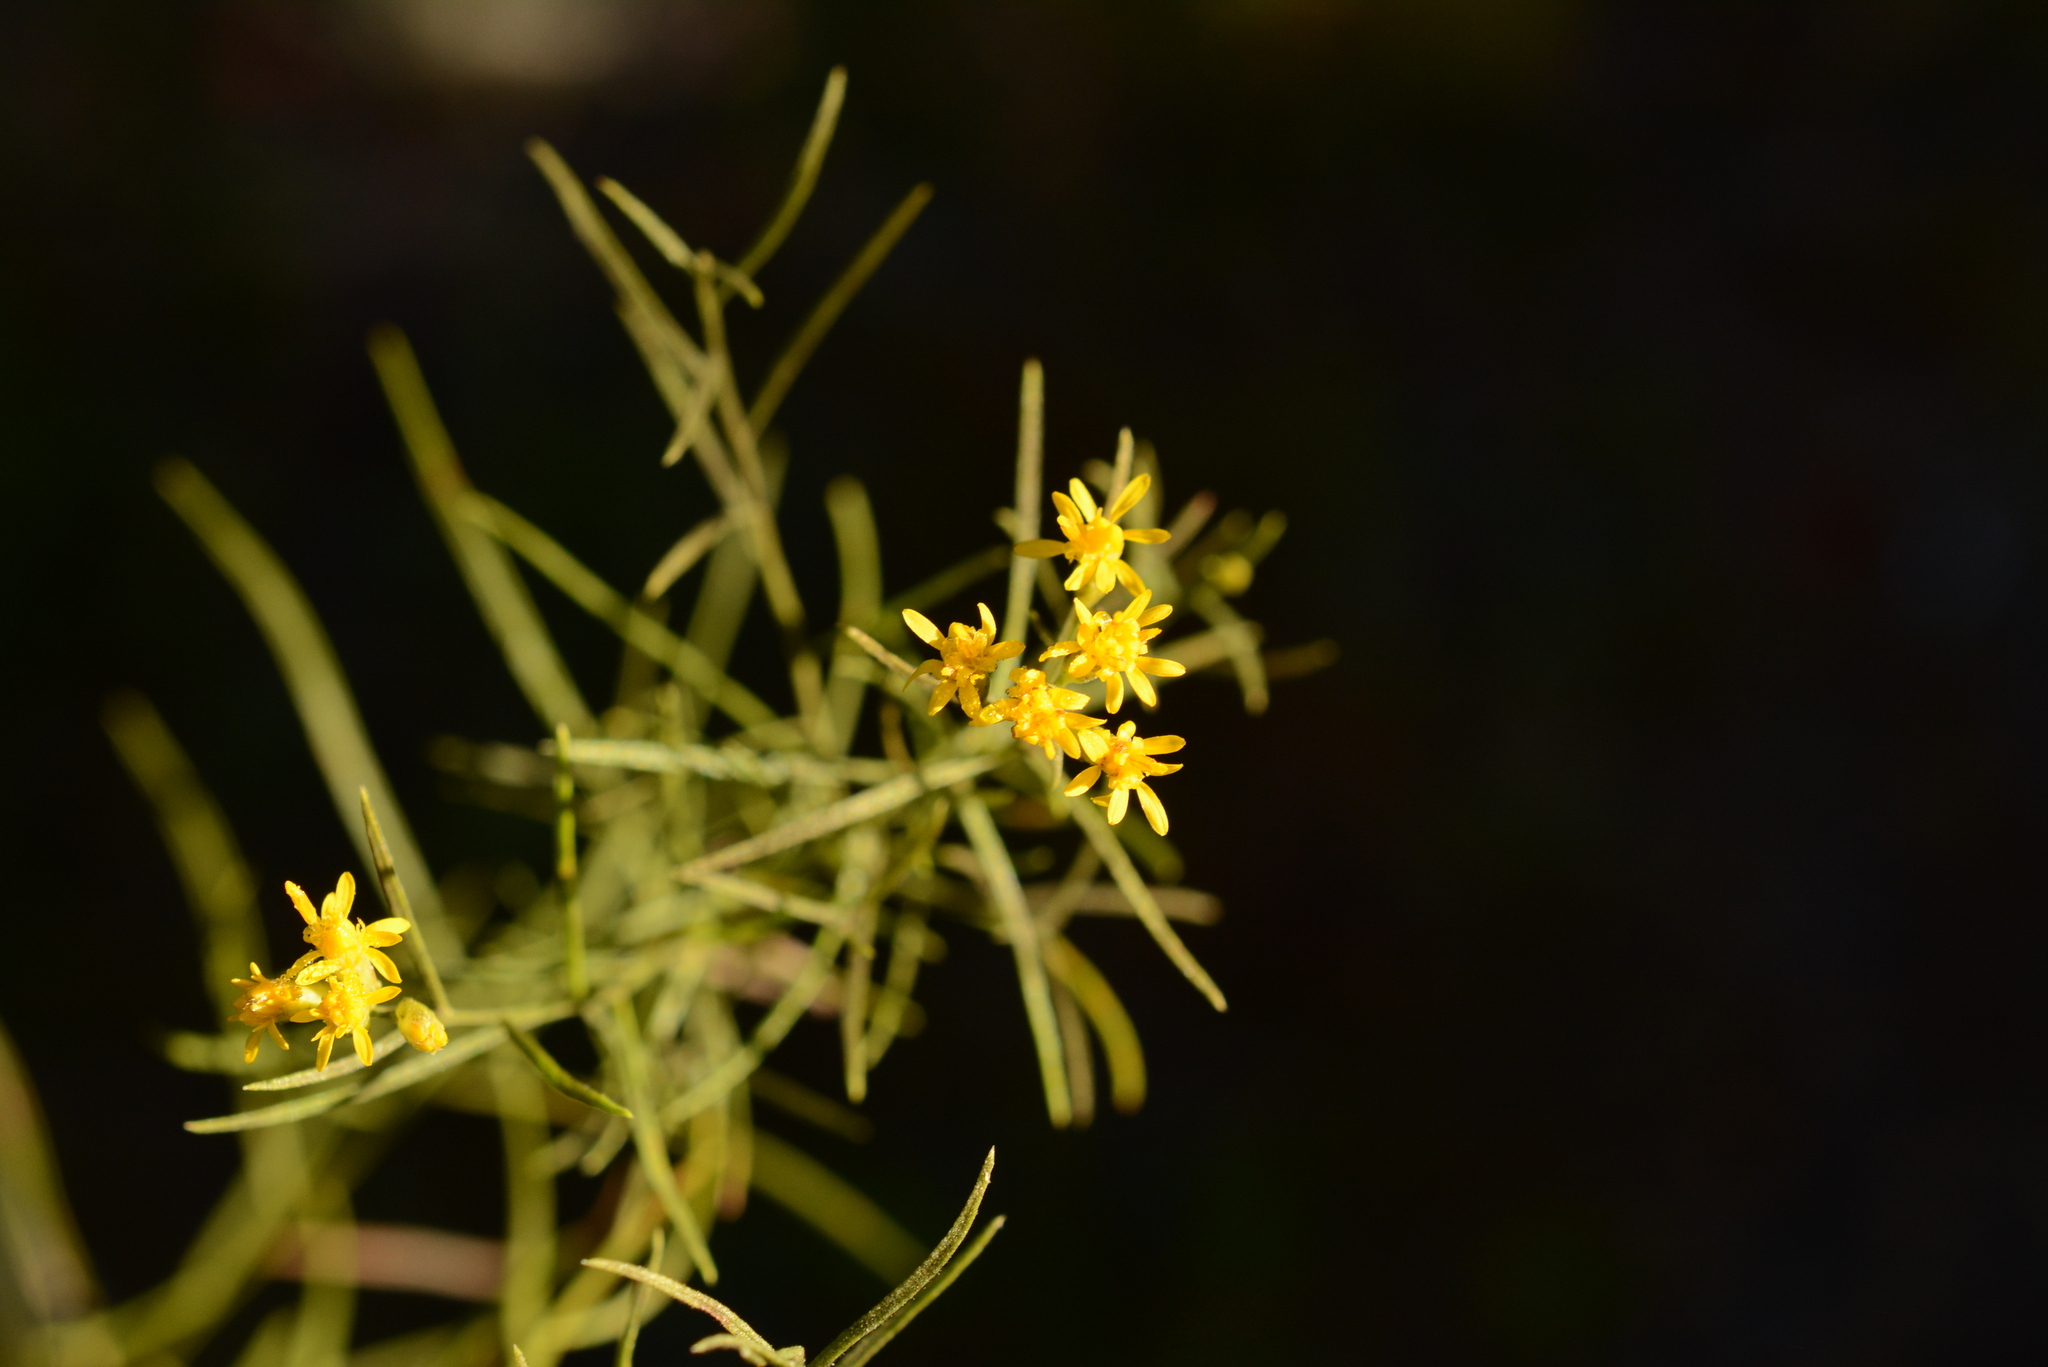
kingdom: Plantae
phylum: Tracheophyta
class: Magnoliopsida
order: Asterales
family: Asteraceae
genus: Euthamia
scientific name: Euthamia caroliniana
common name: Coastal plain goldentop
